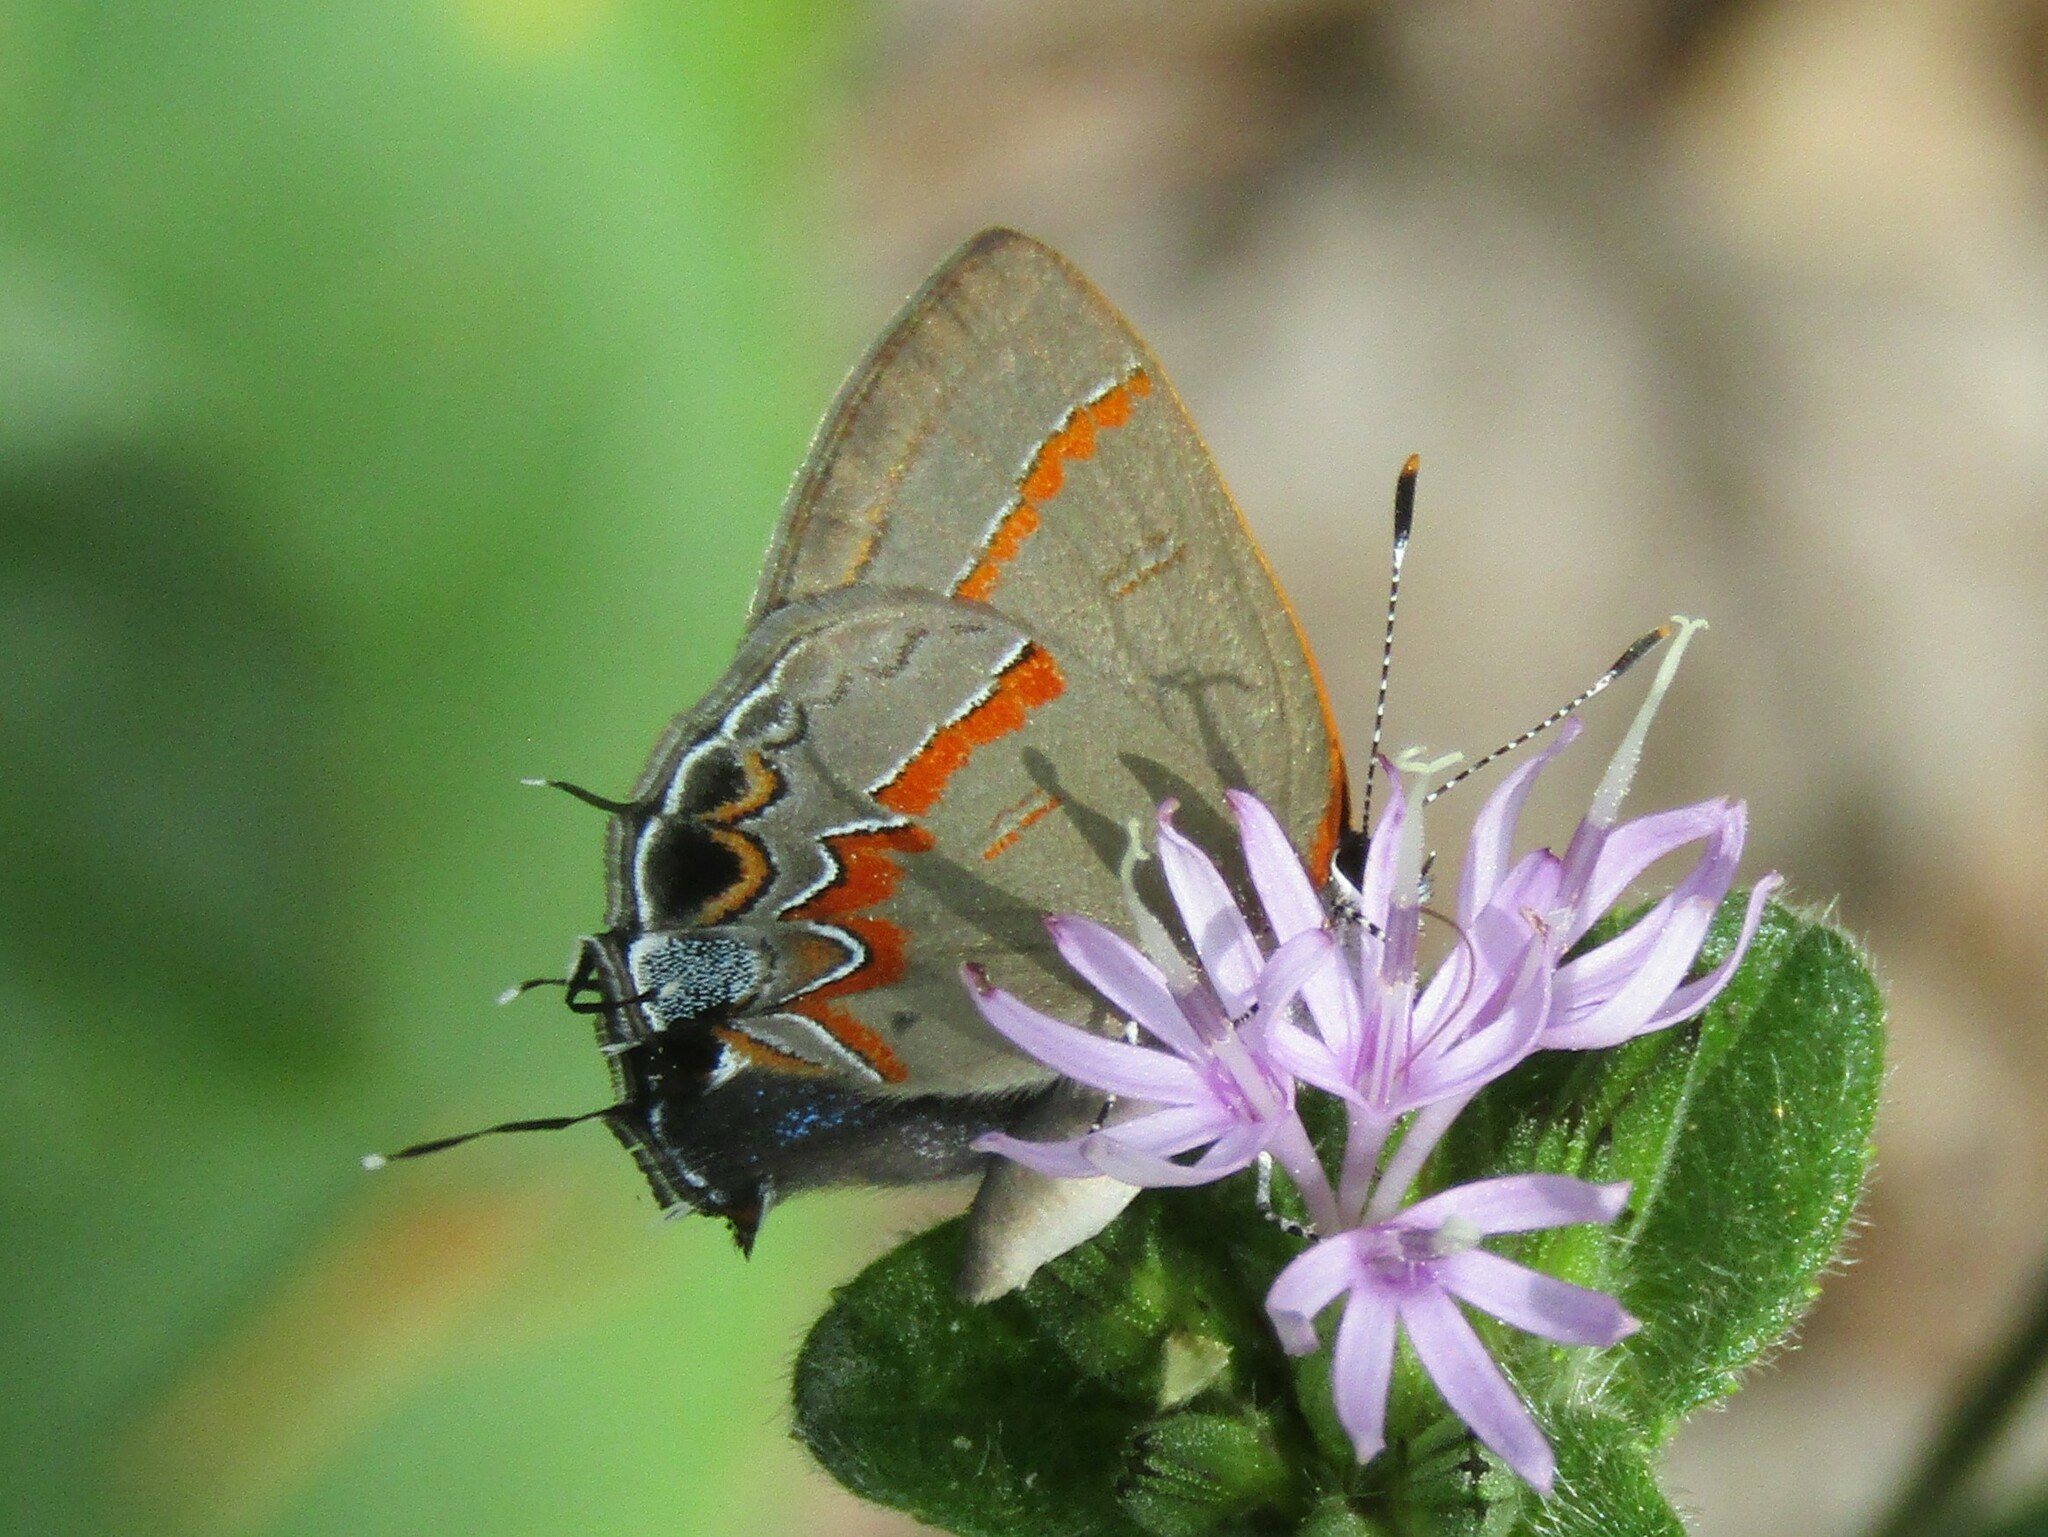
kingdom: Animalia
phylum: Arthropoda
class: Insecta
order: Lepidoptera
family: Lycaenidae
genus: Calycopis
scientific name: Calycopis cecrops
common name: Red-banded hairstreak
